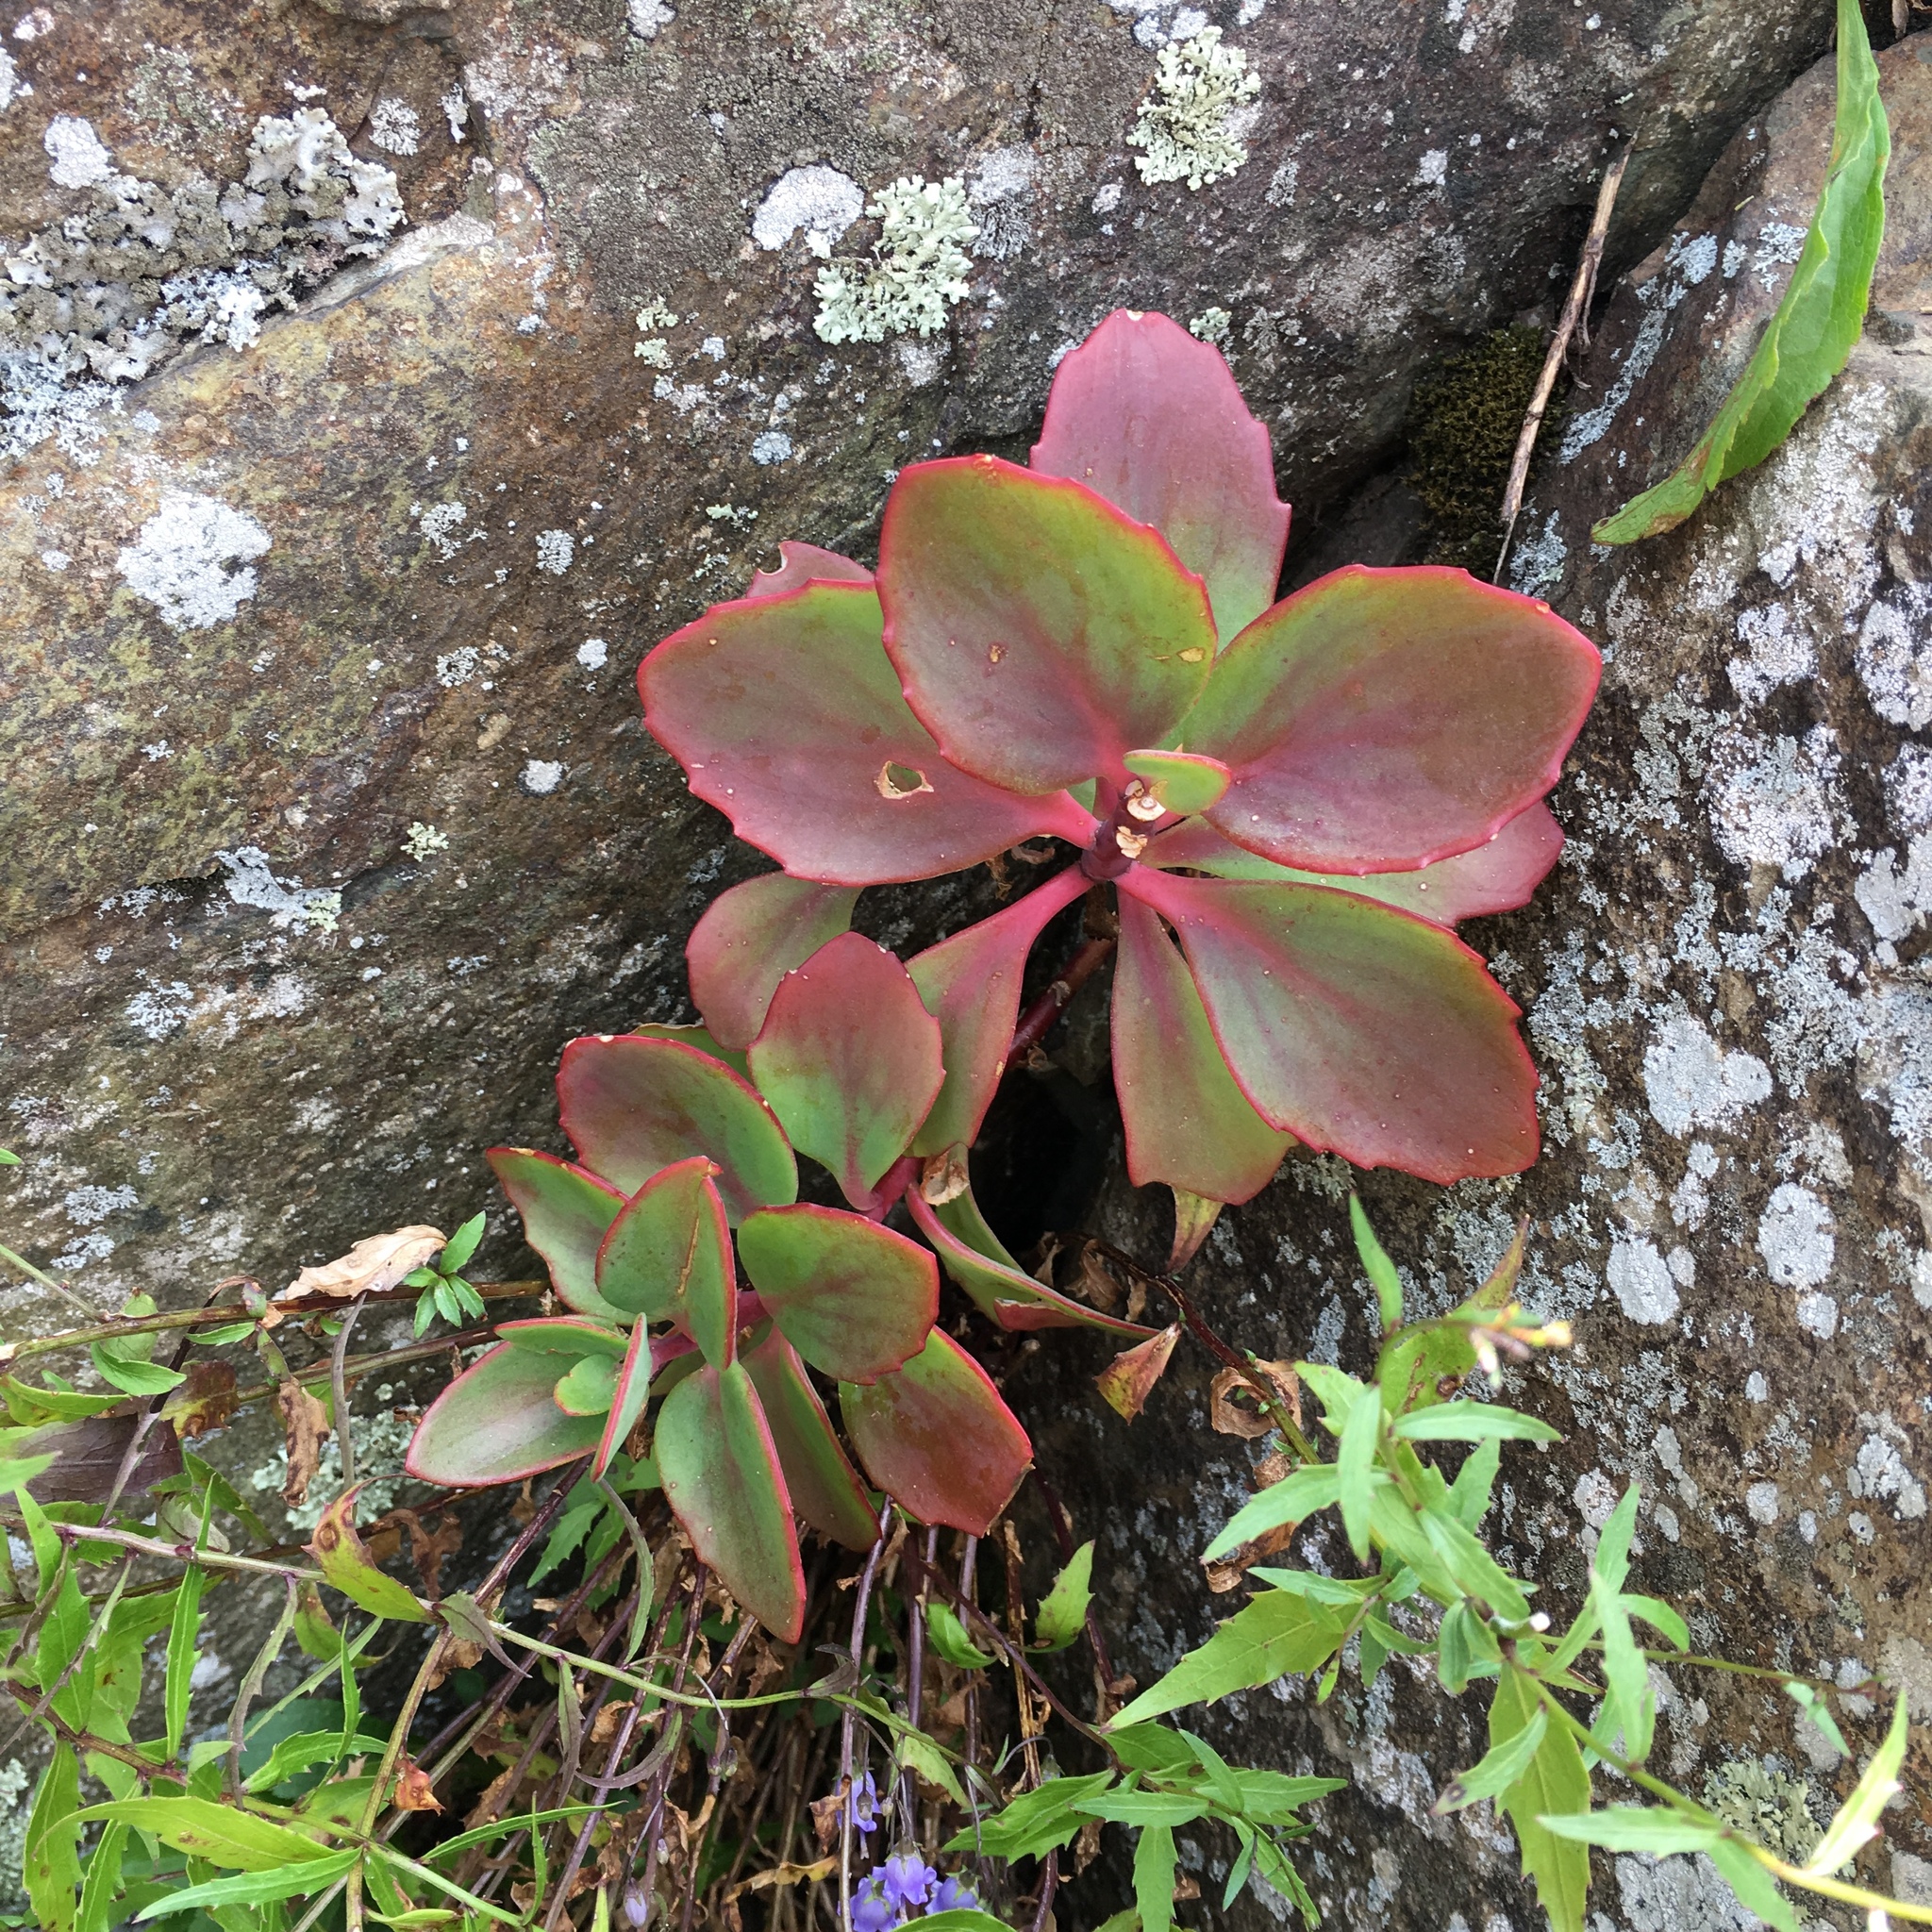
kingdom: Plantae
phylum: Tracheophyta
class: Magnoliopsida
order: Saxifragales
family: Crassulaceae
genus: Hylotelephium
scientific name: Hylotelephium telephioides
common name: Allegheny stonecrop
